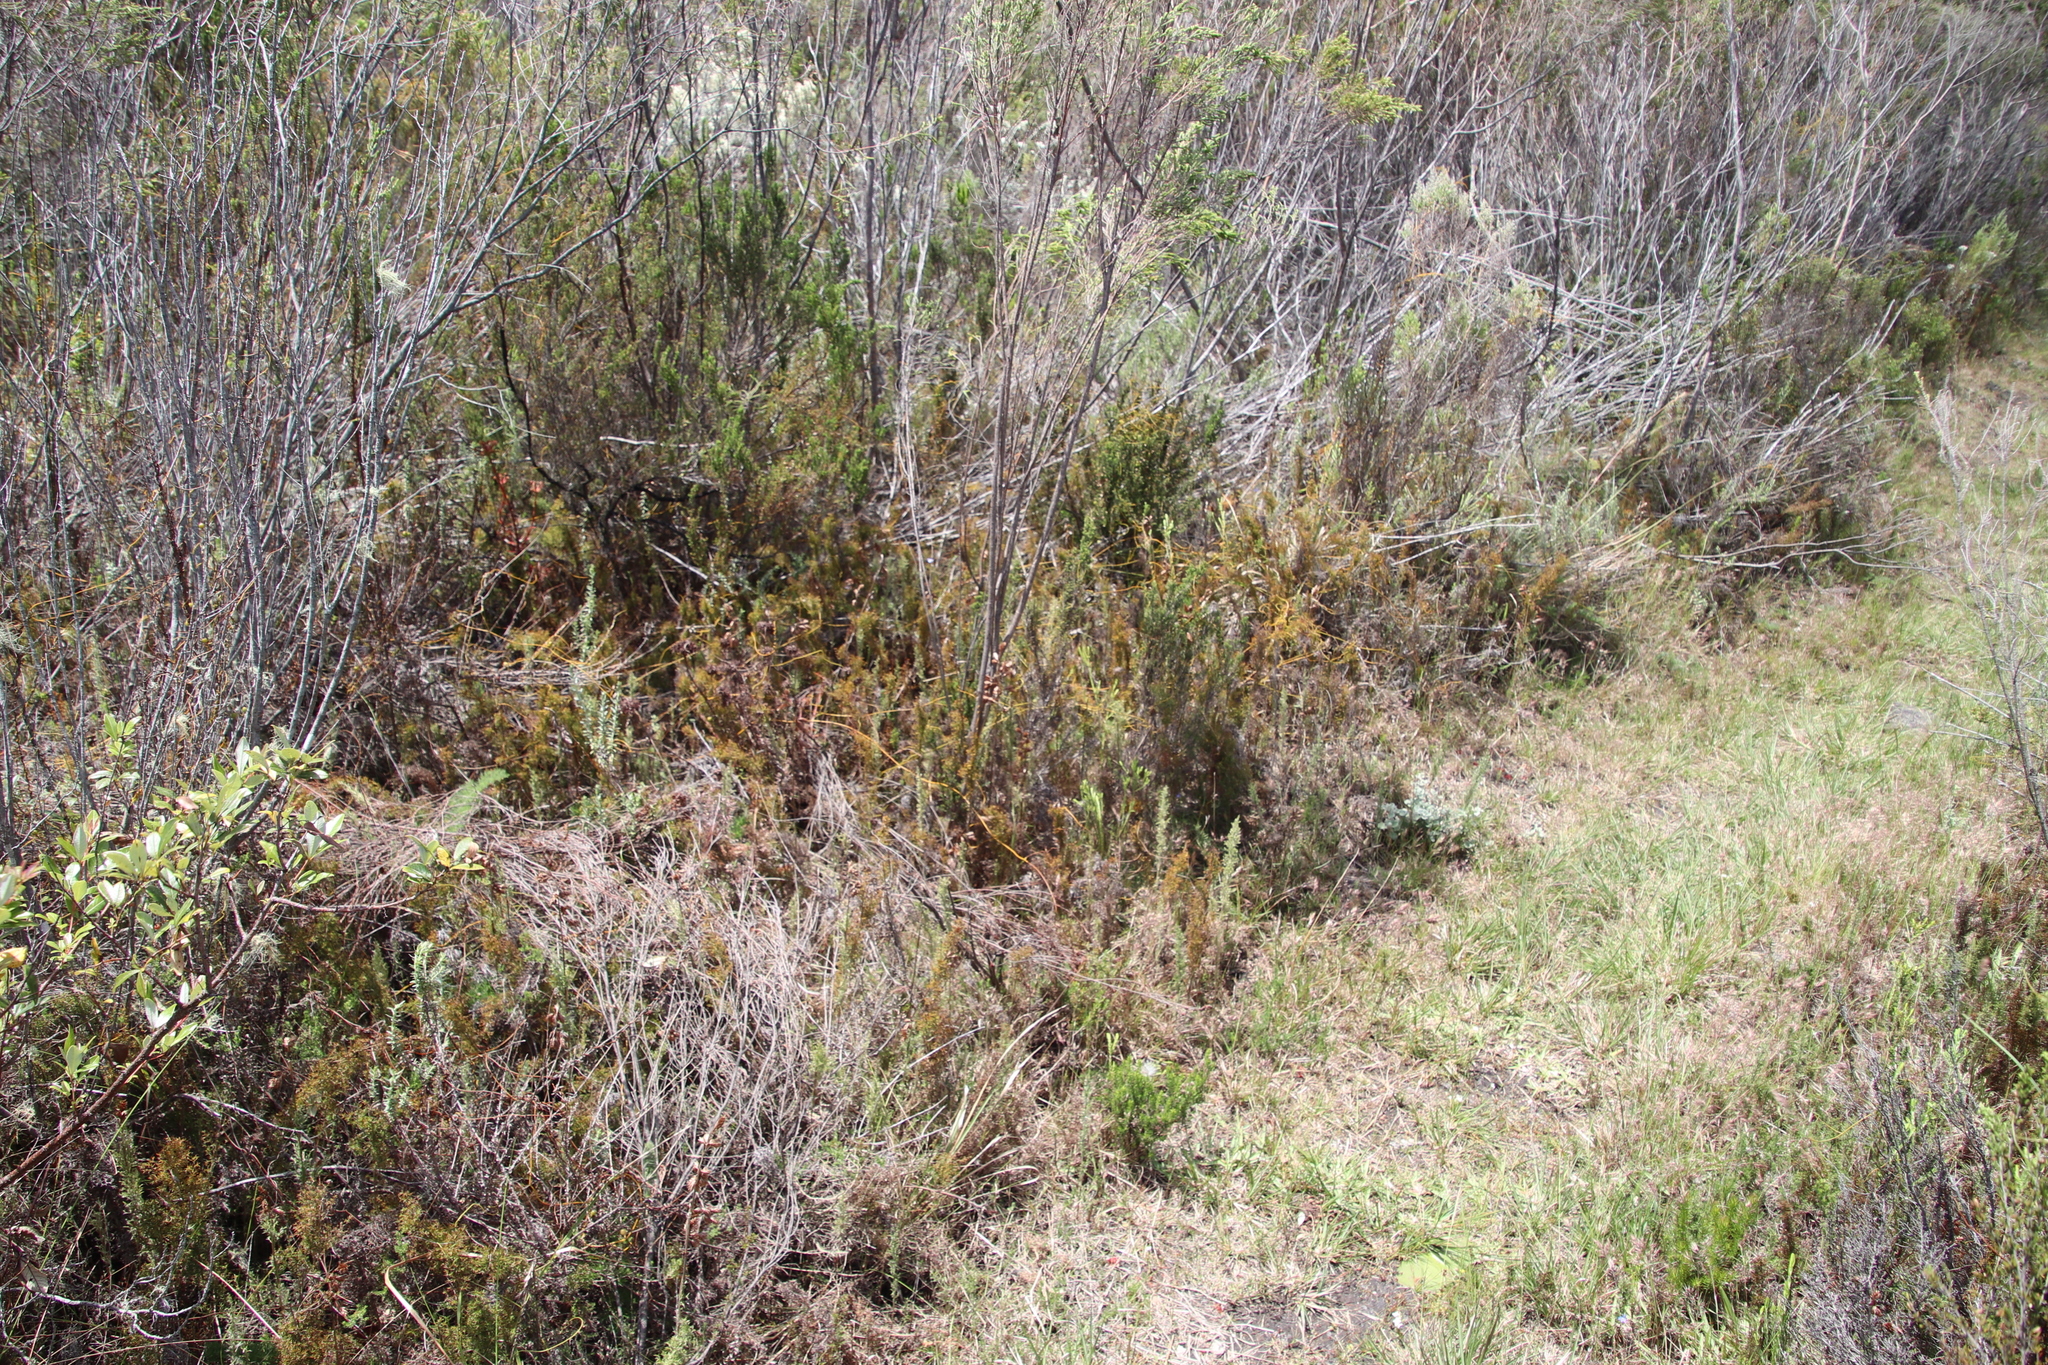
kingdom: Plantae
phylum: Tracheophyta
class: Magnoliopsida
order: Laurales
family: Lauraceae
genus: Cassytha
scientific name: Cassytha ciliolata
